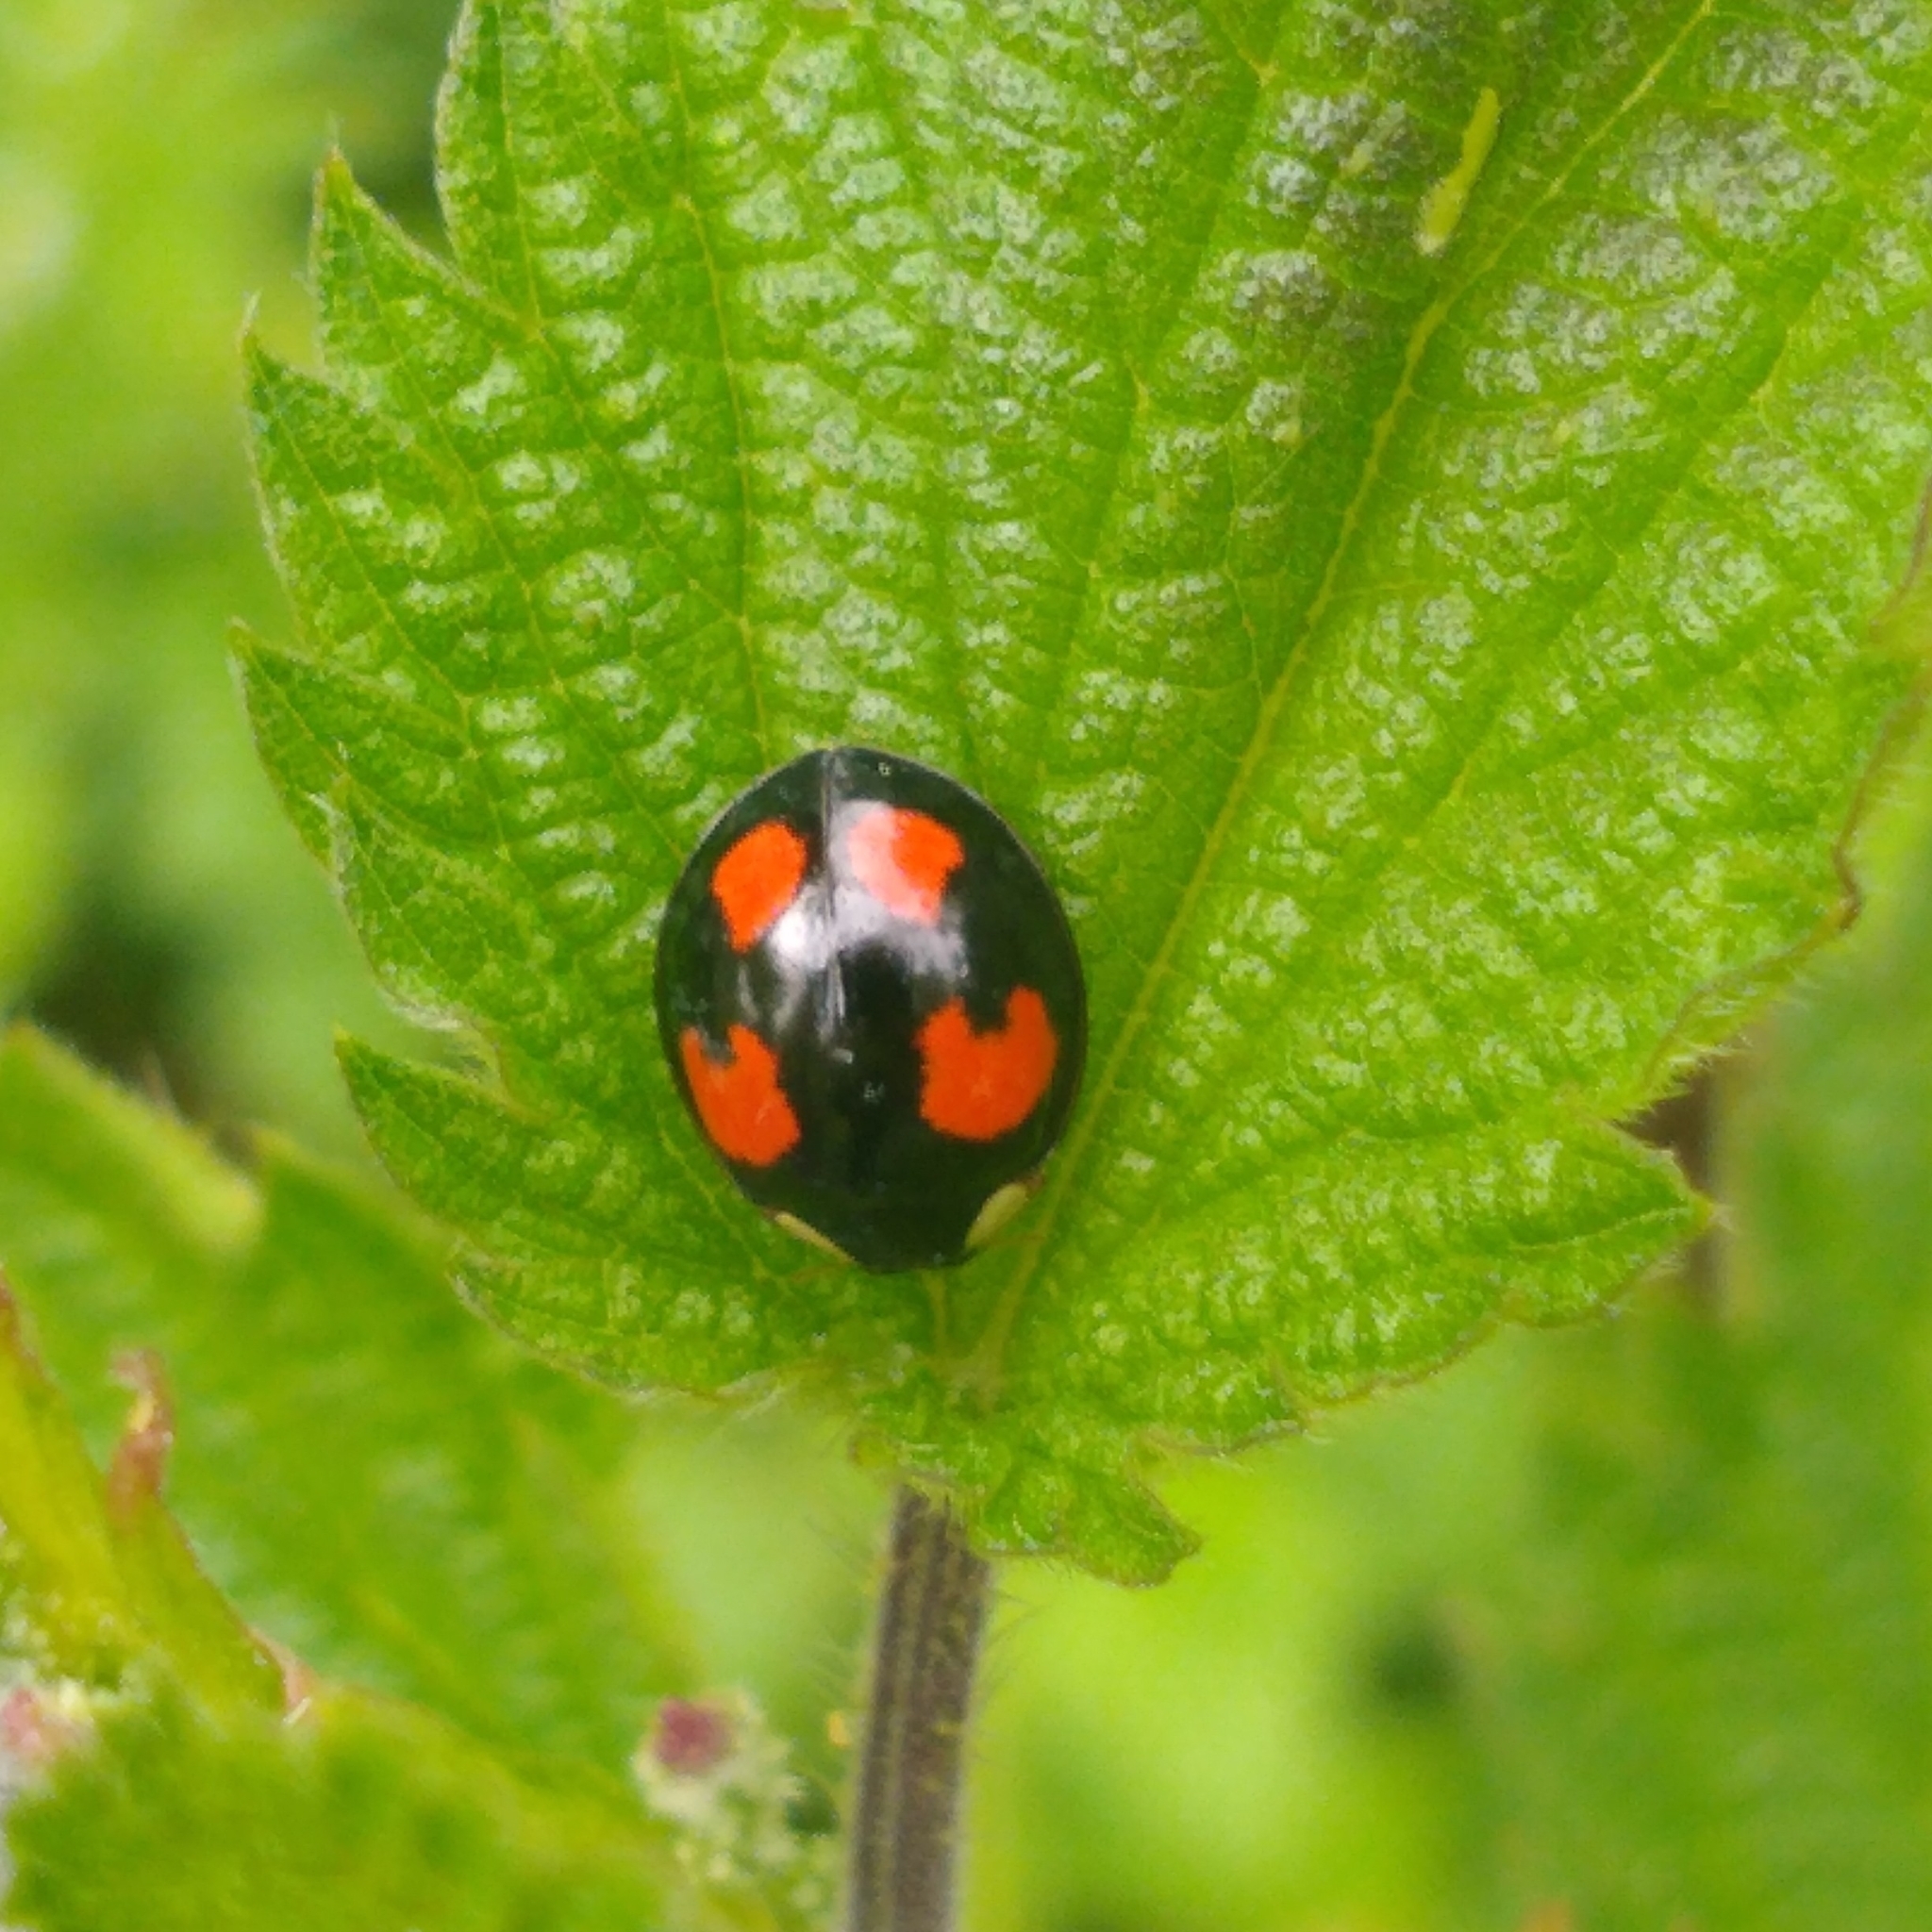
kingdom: Animalia
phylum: Arthropoda
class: Insecta
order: Coleoptera
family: Coccinellidae
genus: Harmonia
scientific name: Harmonia axyridis
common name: Harlequin ladybird
